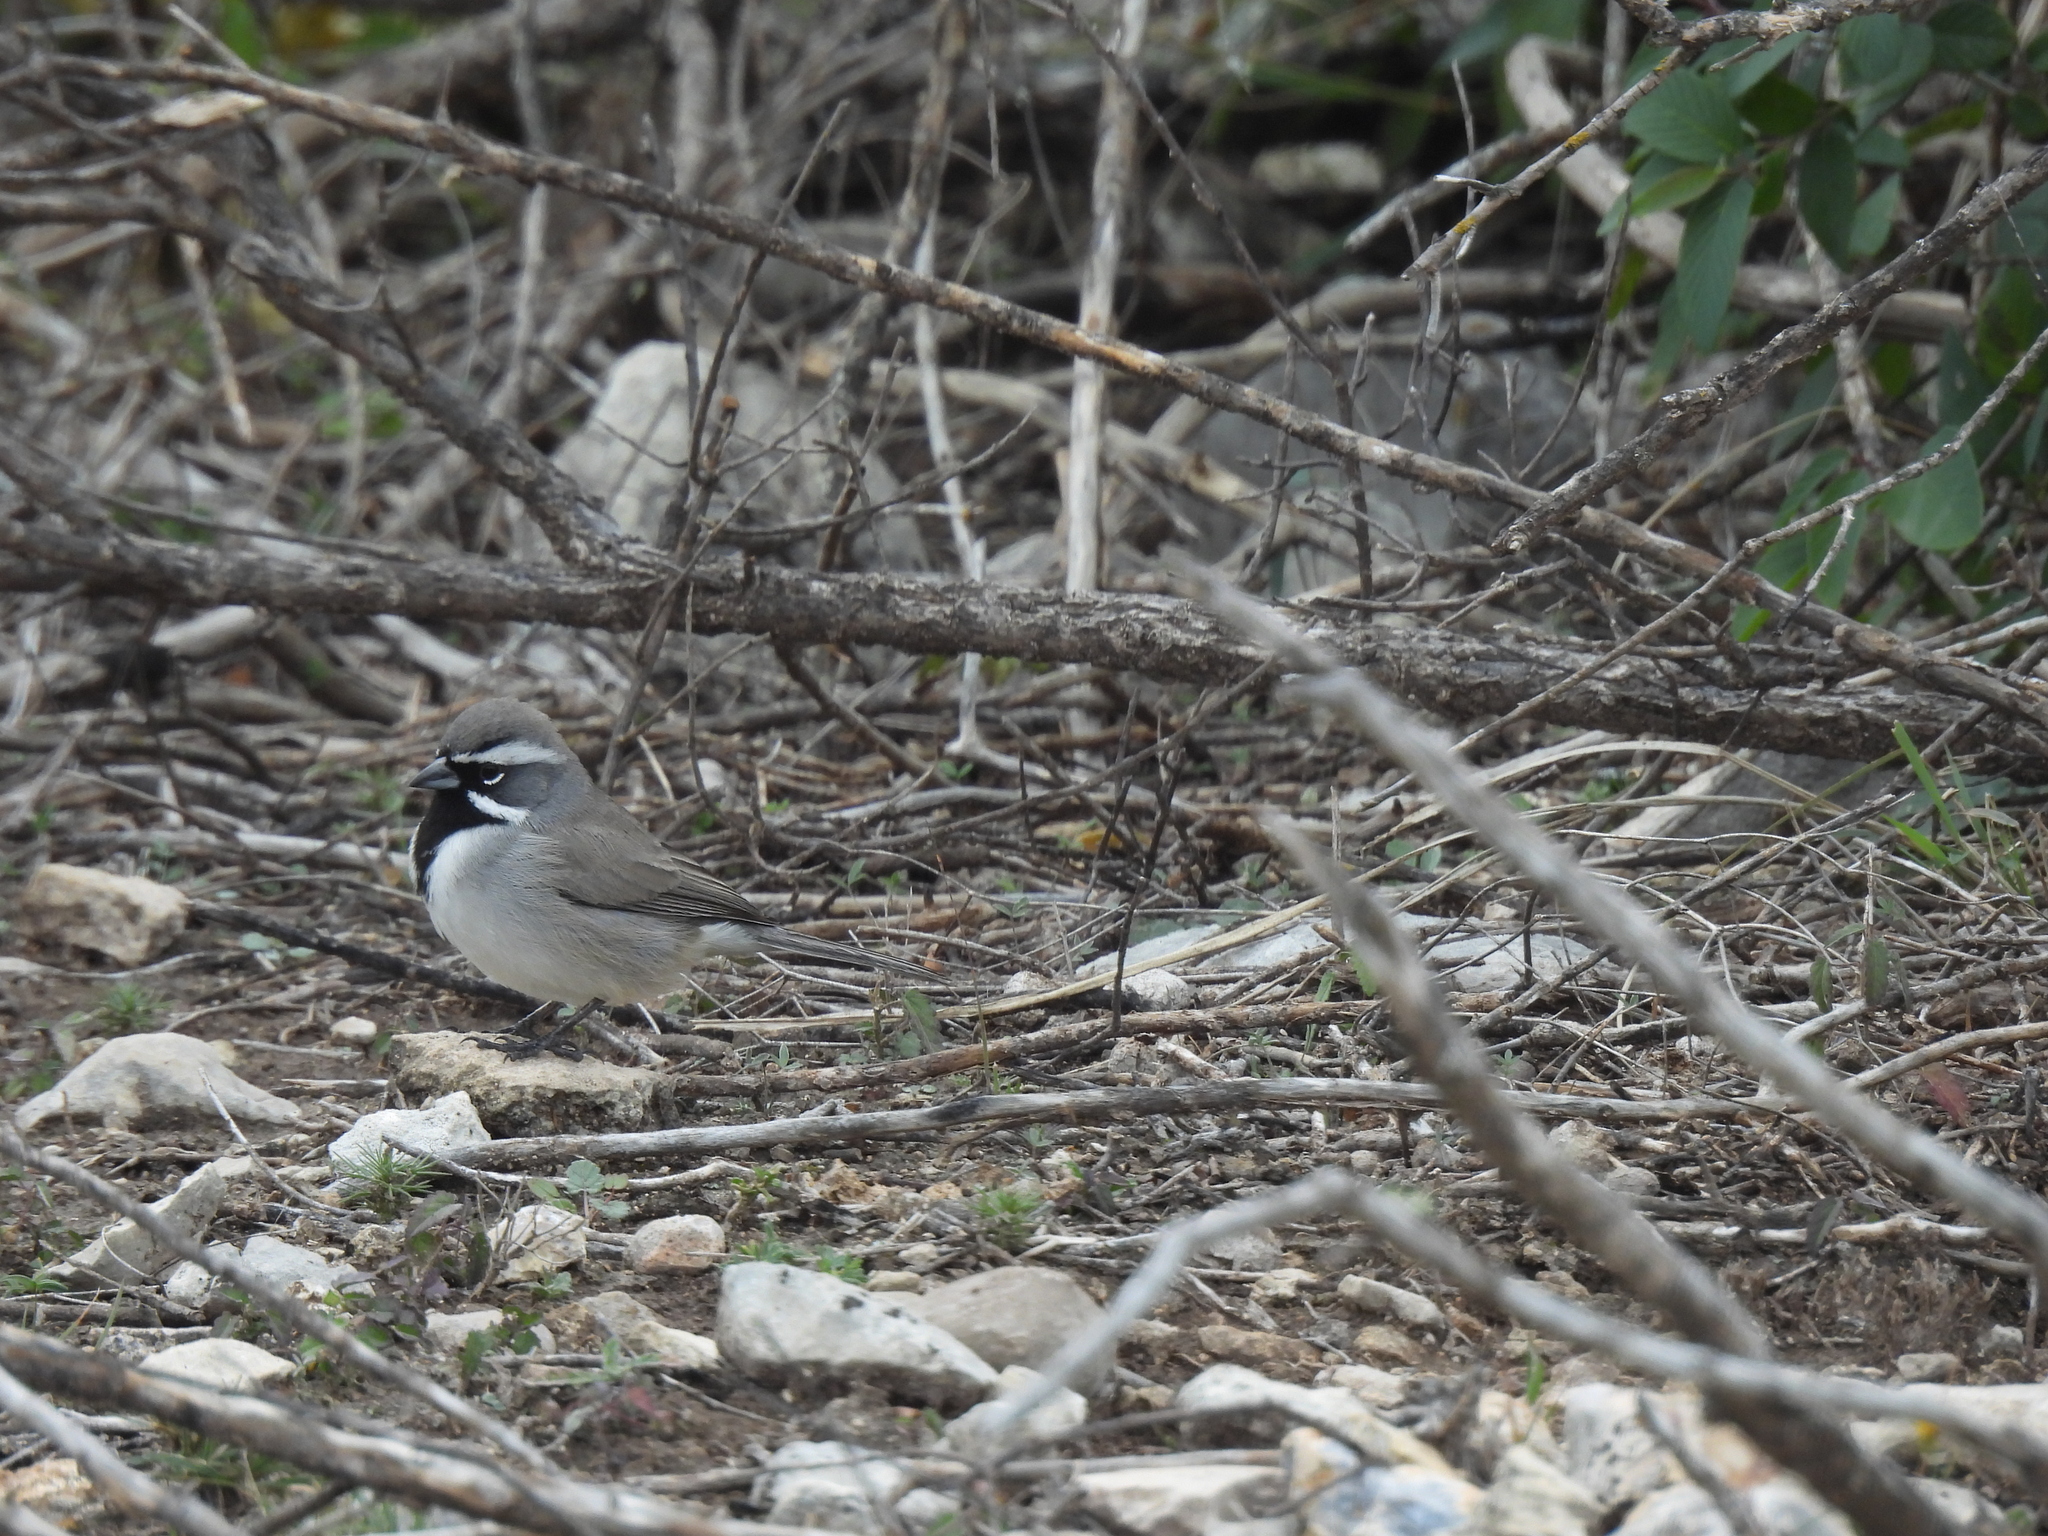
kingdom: Animalia
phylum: Chordata
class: Aves
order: Passeriformes
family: Passerellidae
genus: Amphispiza
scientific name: Amphispiza bilineata
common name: Black-throated sparrow
